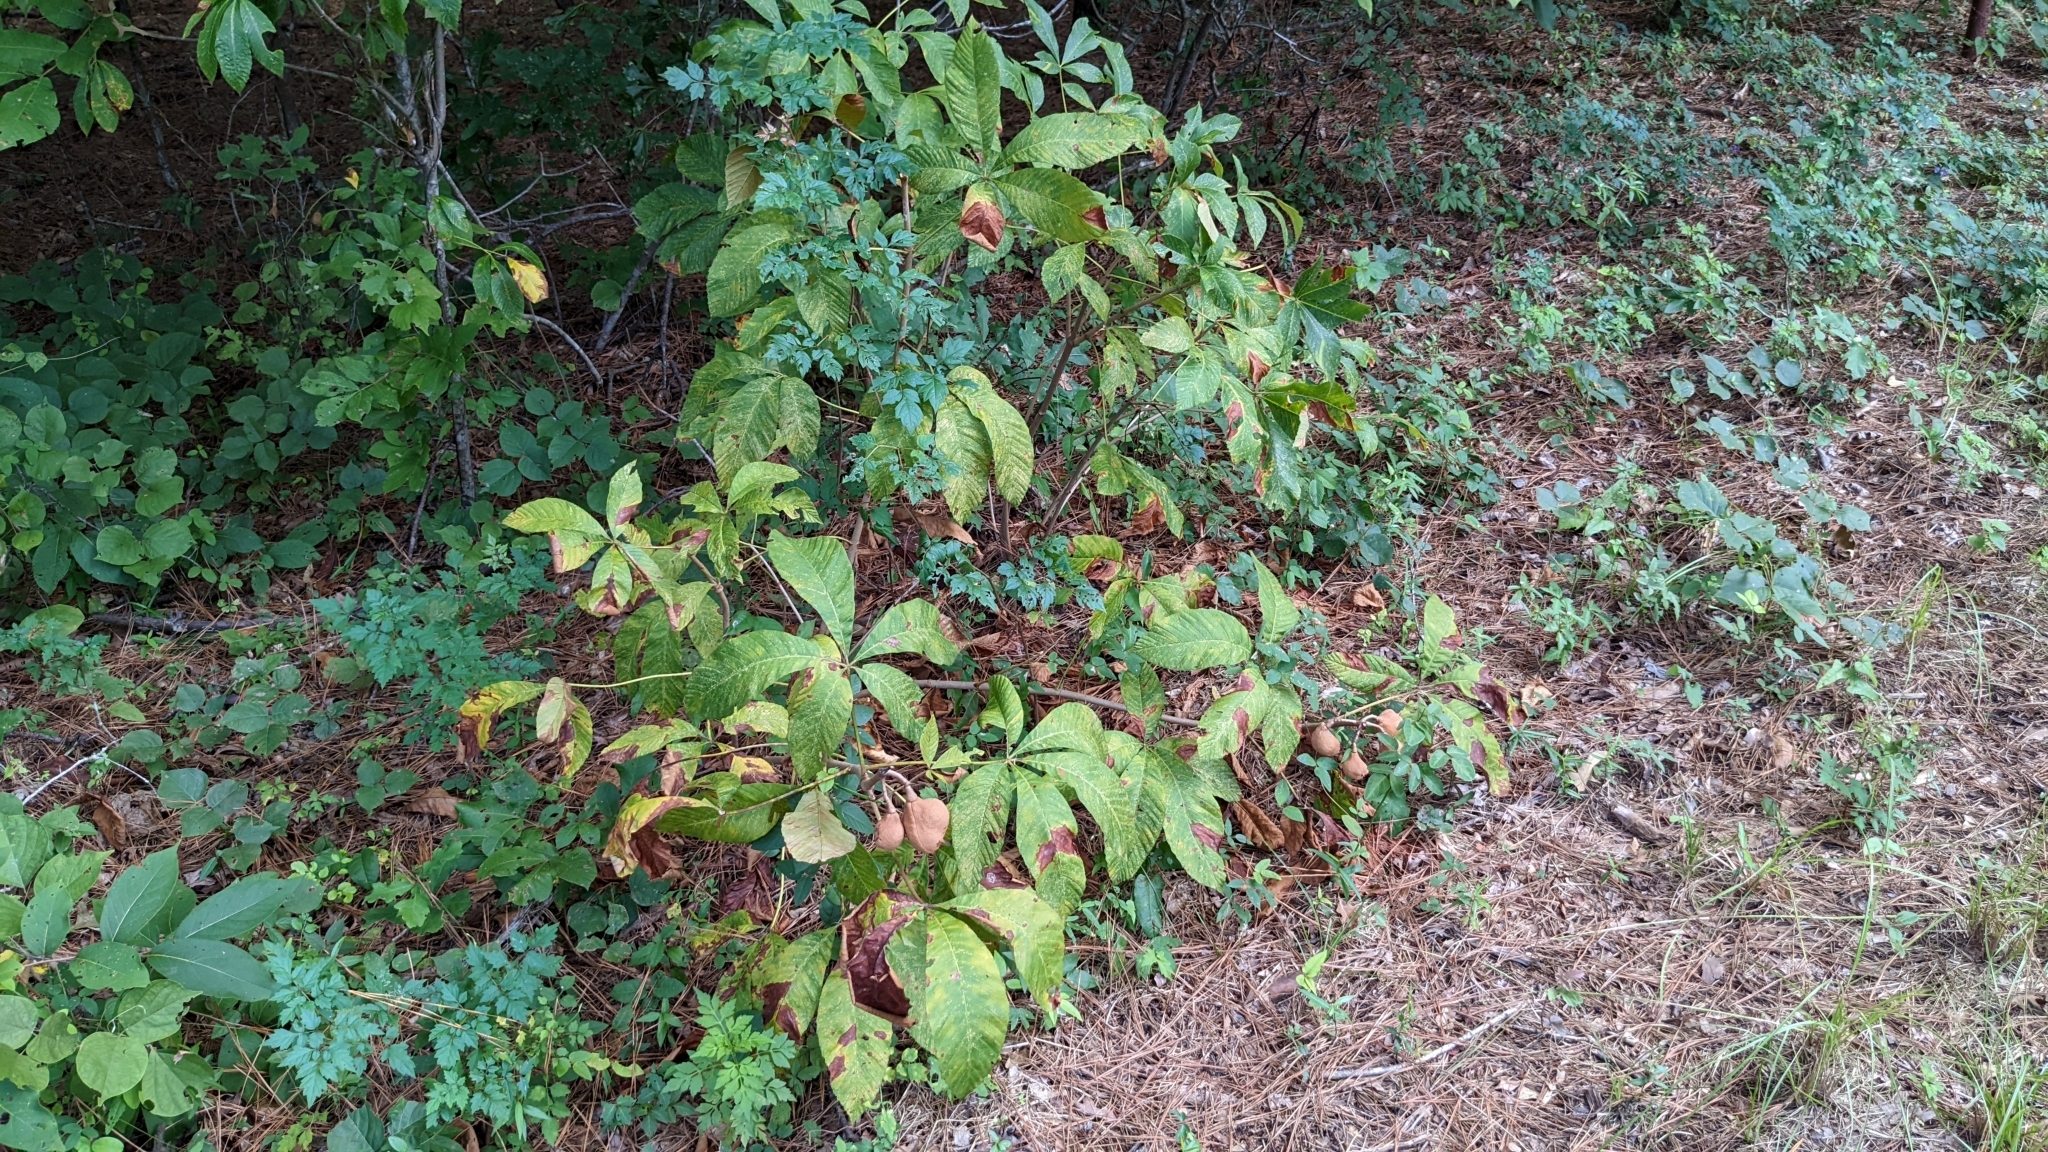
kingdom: Plantae
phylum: Tracheophyta
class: Magnoliopsida
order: Sapindales
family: Sapindaceae
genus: Aesculus
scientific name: Aesculus pavia
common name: Red buckeye
